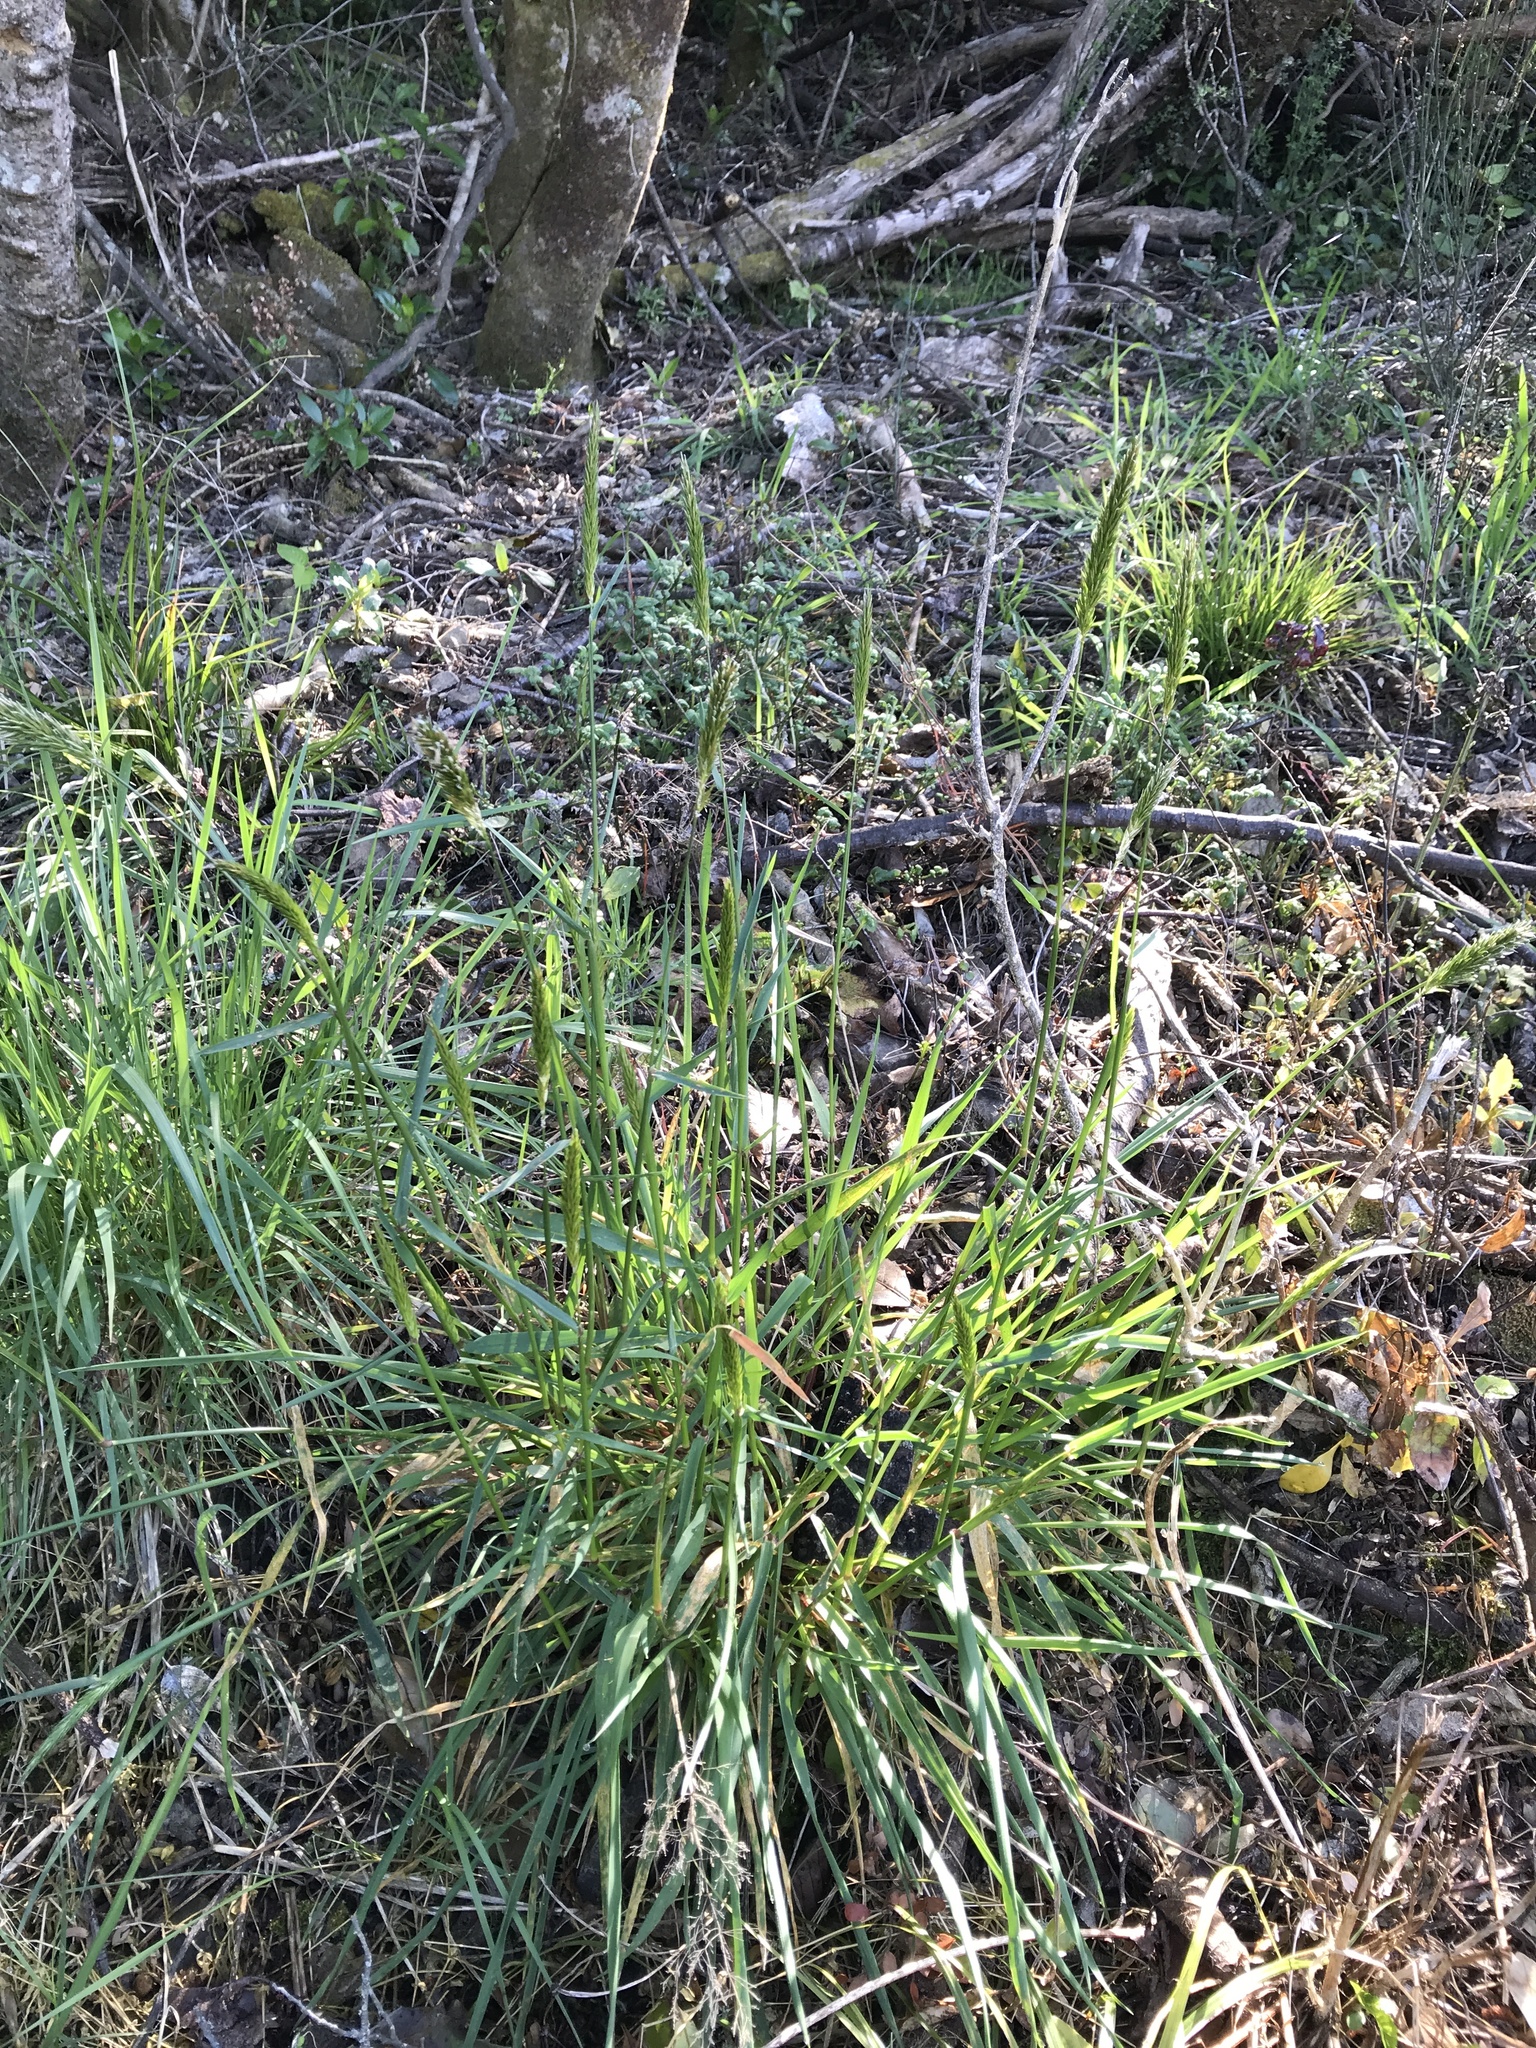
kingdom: Plantae
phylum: Tracheophyta
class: Liliopsida
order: Poales
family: Poaceae
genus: Anthoxanthum
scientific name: Anthoxanthum odoratum
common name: Sweet vernalgrass
